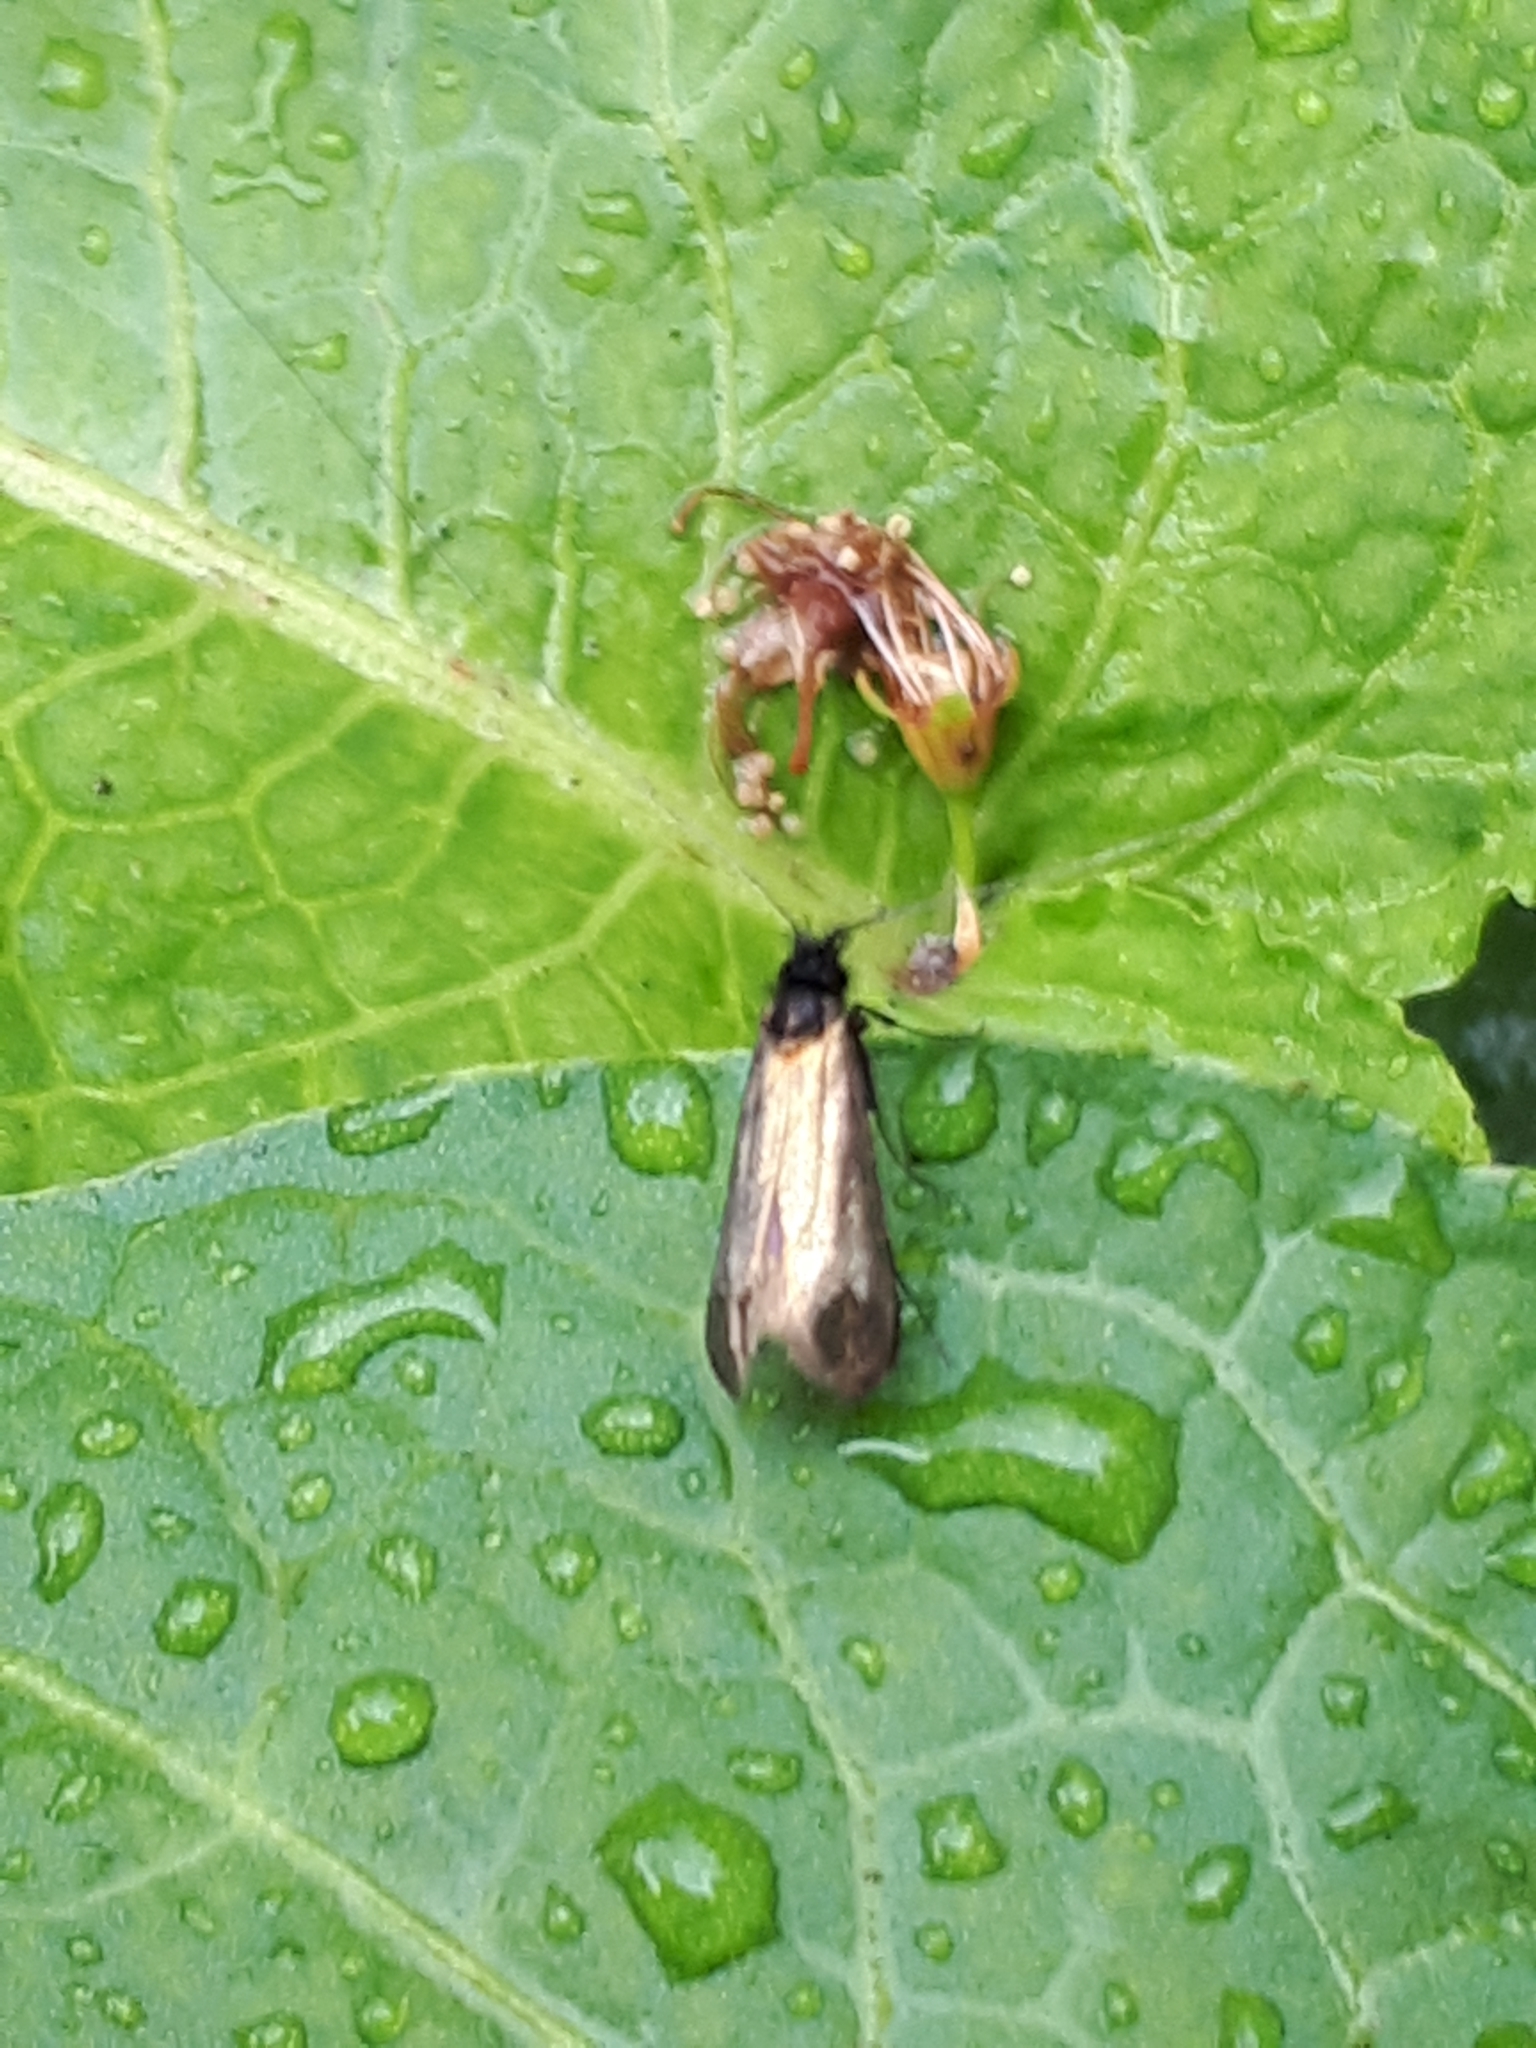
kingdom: Animalia
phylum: Arthropoda
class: Insecta
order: Lepidoptera
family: Adelidae
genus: Adela
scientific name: Adela viridella
